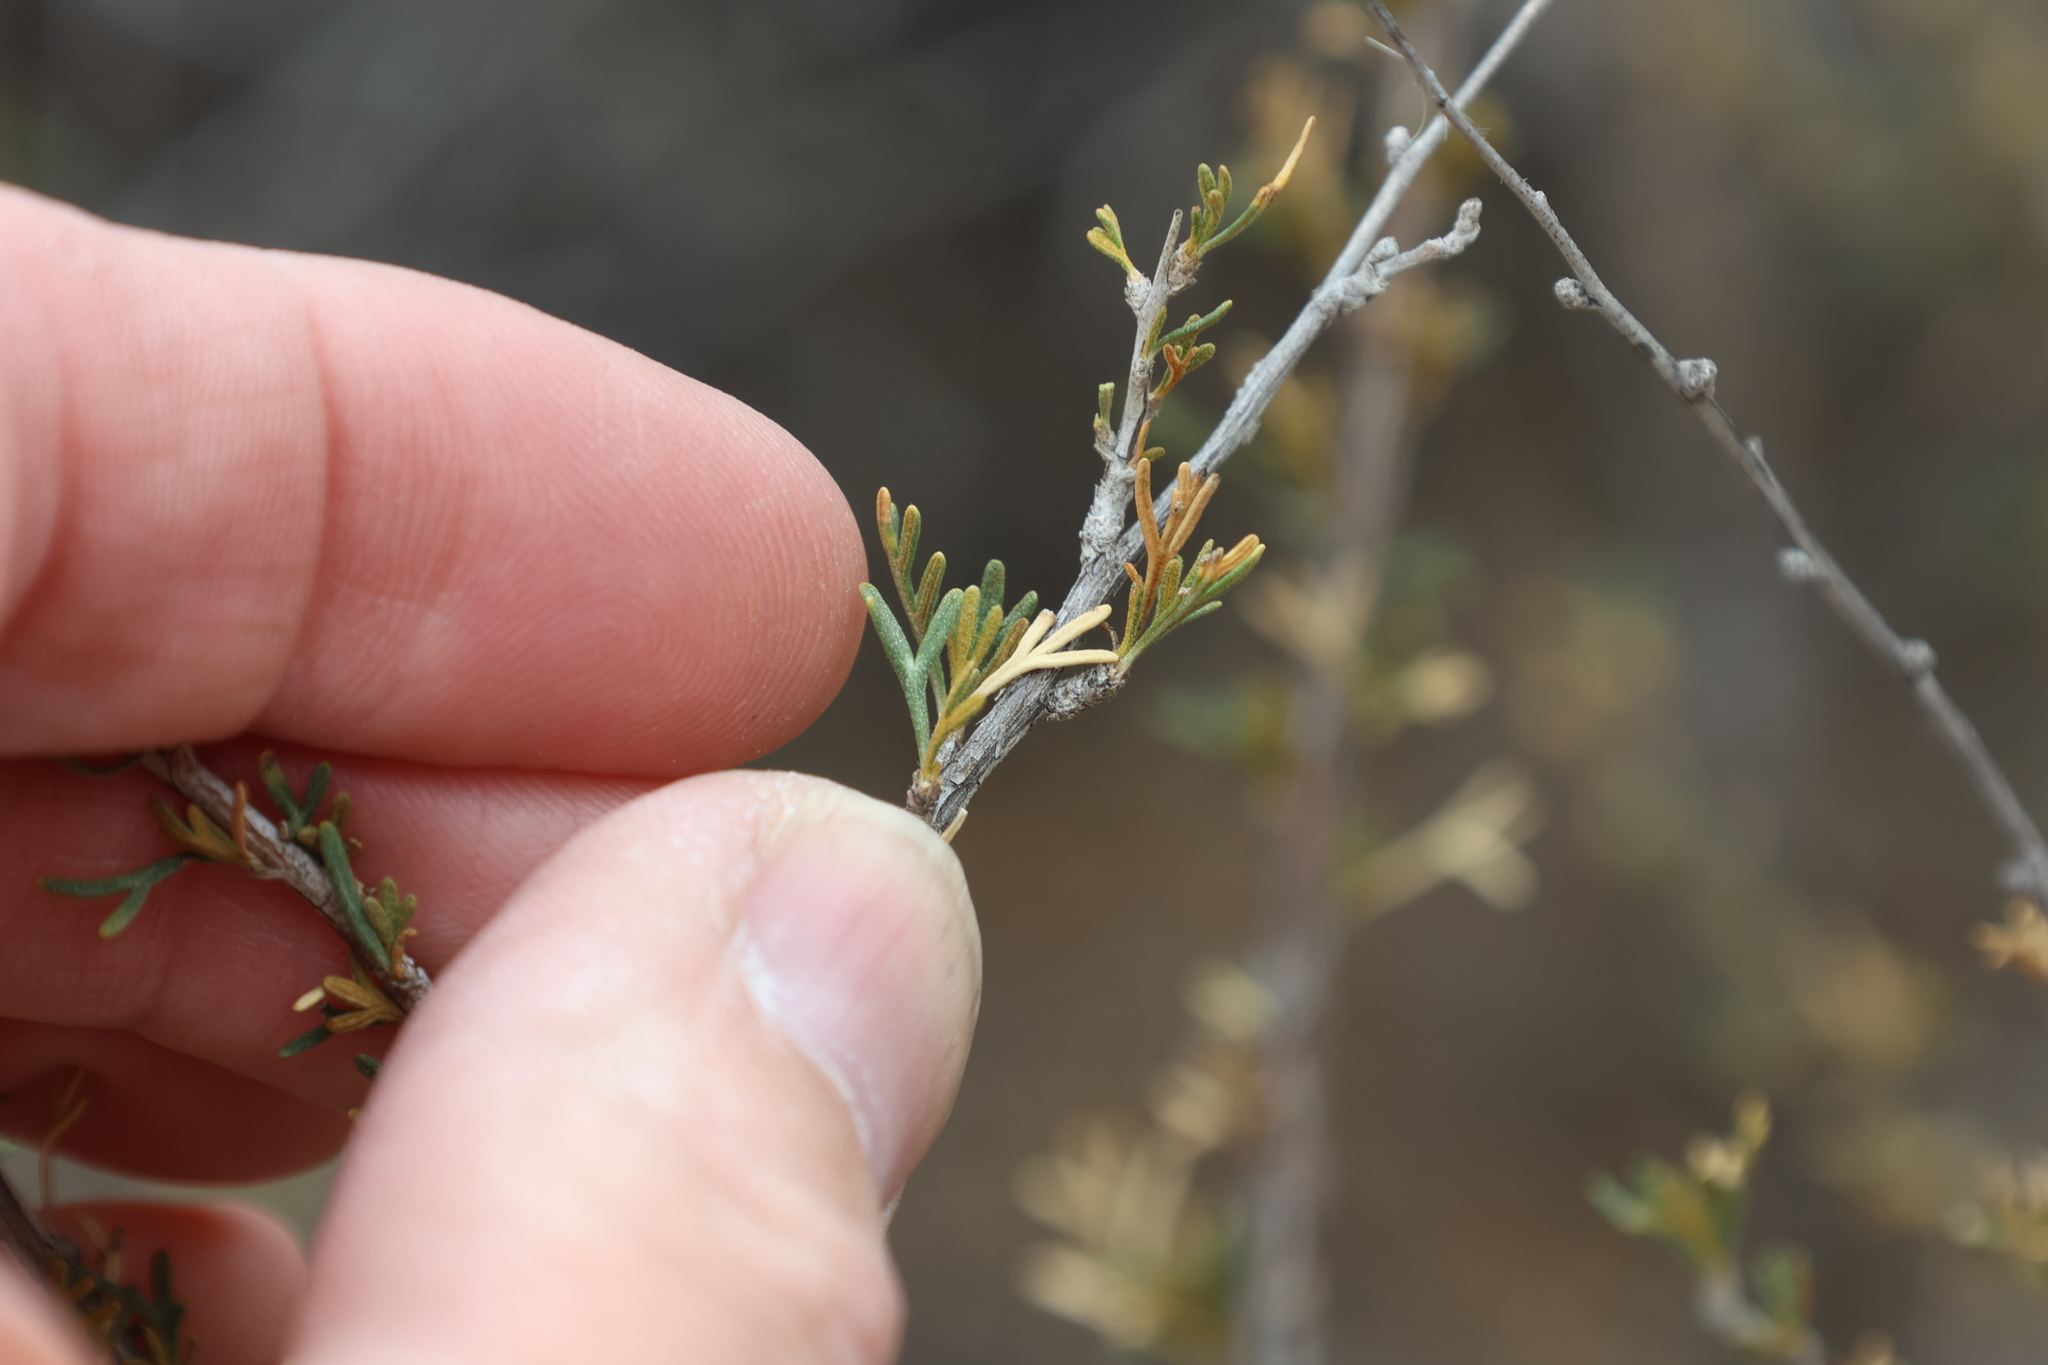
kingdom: Plantae
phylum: Tracheophyta
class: Magnoliopsida
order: Rosales
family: Rosaceae
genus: Fallugia
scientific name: Fallugia paradoxa
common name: Apache-plume
